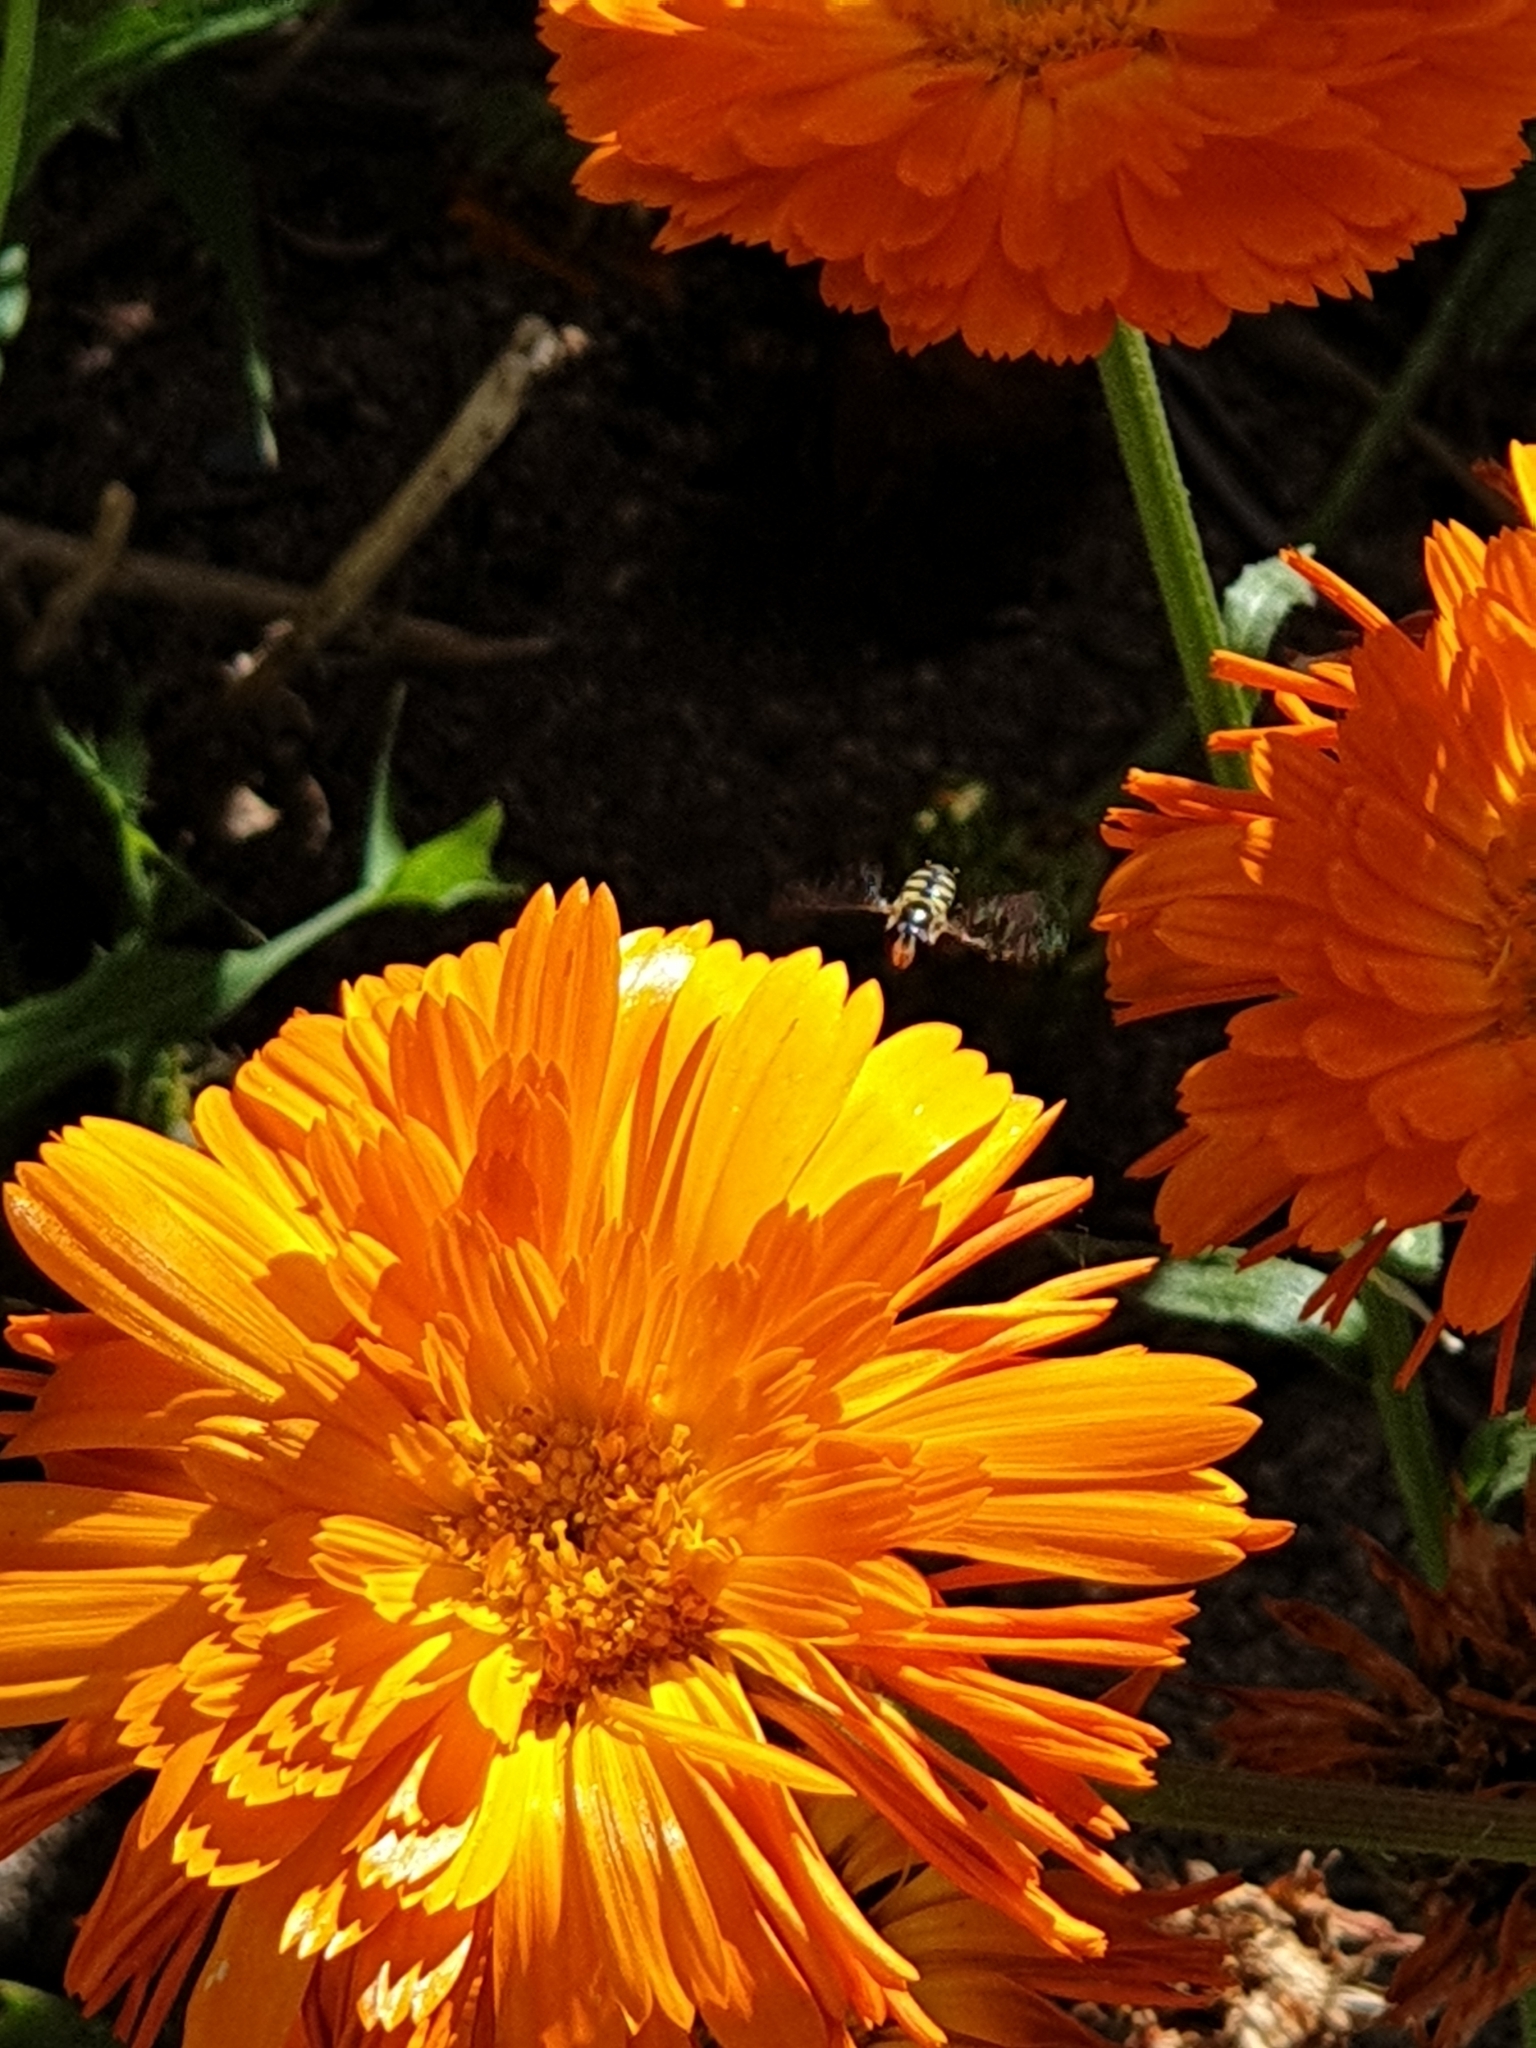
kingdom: Animalia
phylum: Arthropoda
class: Insecta
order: Diptera
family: Syrphidae
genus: Melangyna
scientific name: Melangyna viridiceps
